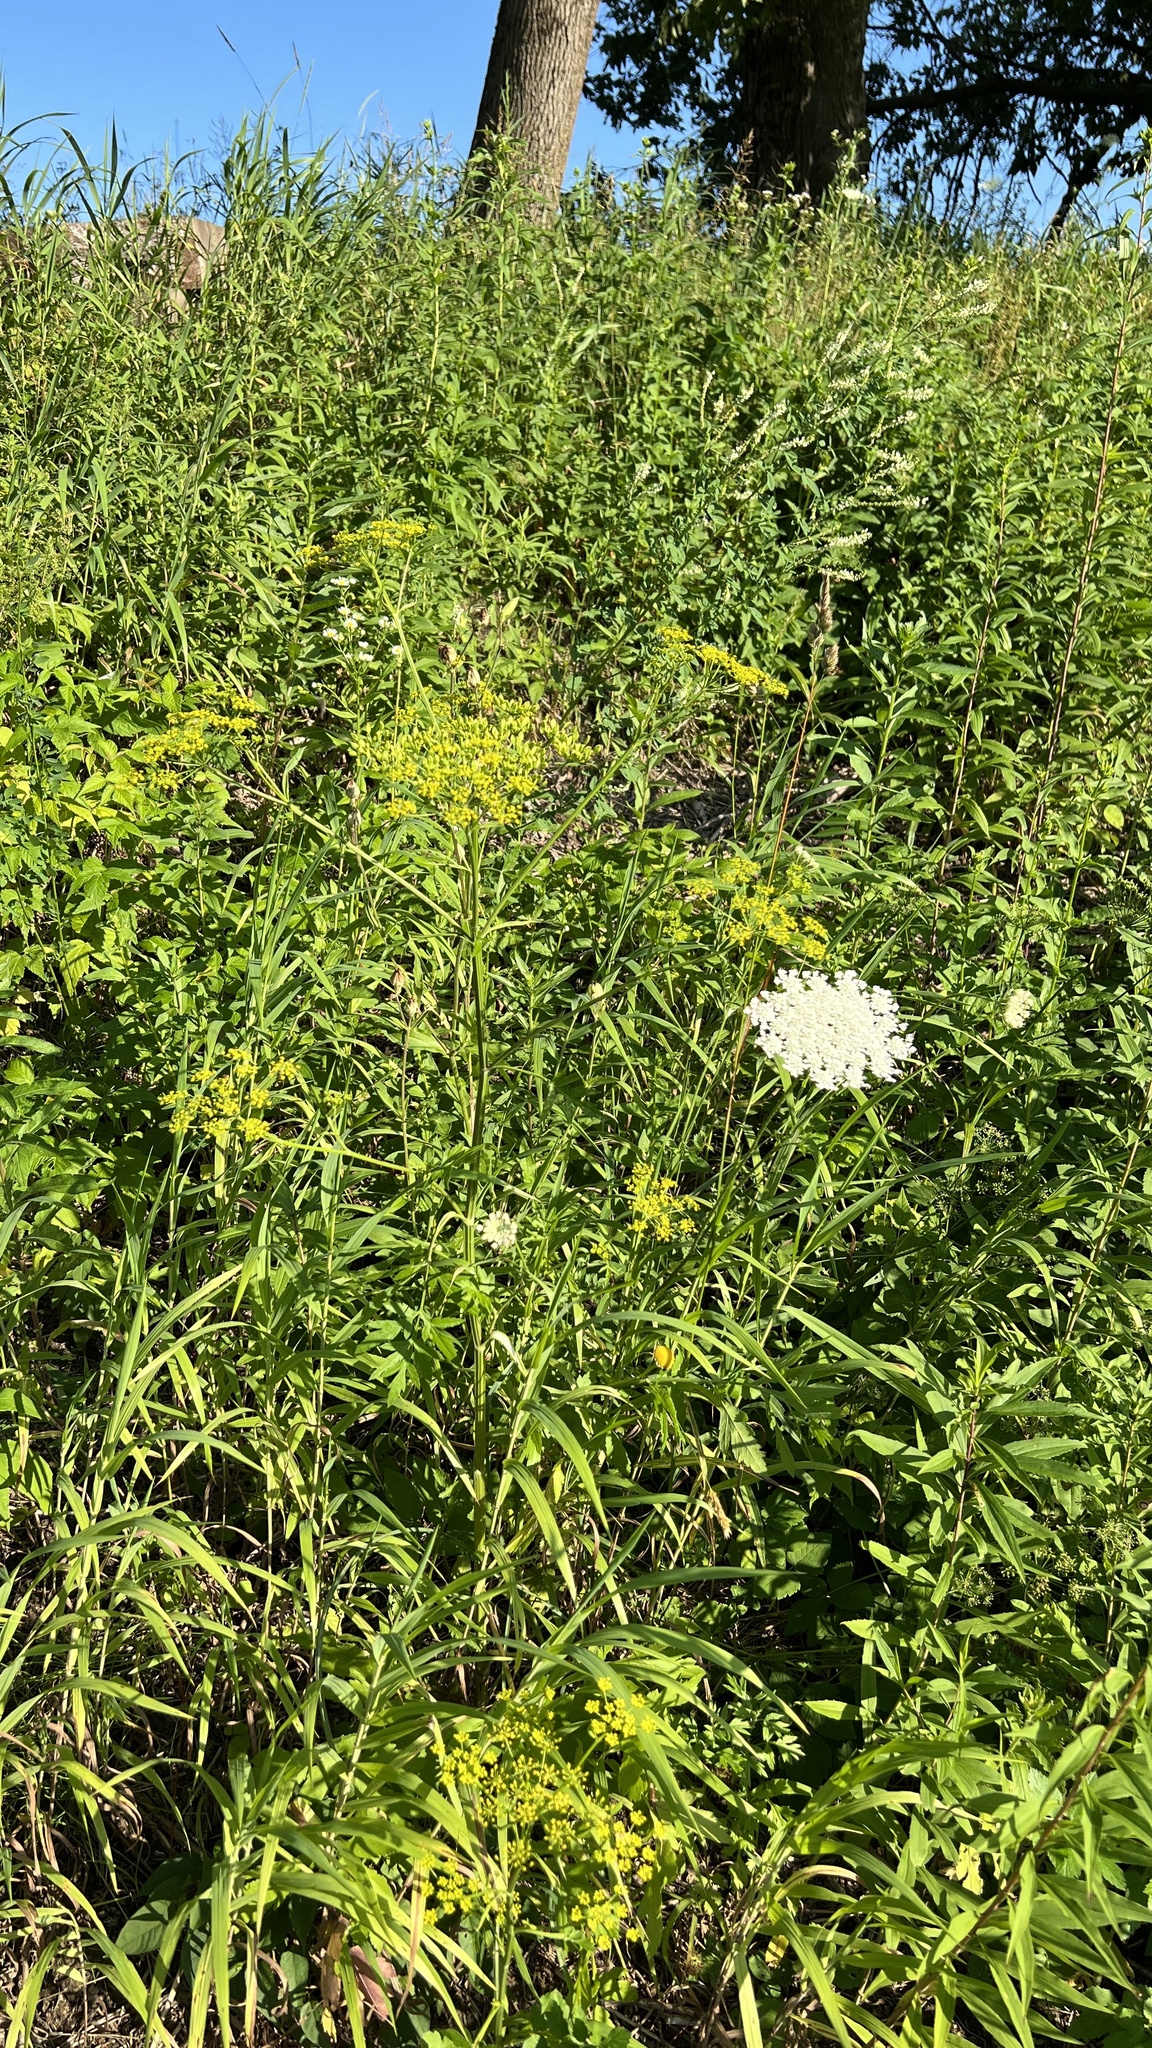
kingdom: Plantae
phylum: Tracheophyta
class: Magnoliopsida
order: Apiales
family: Apiaceae
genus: Pastinaca
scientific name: Pastinaca sativa
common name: Wild parsnip
